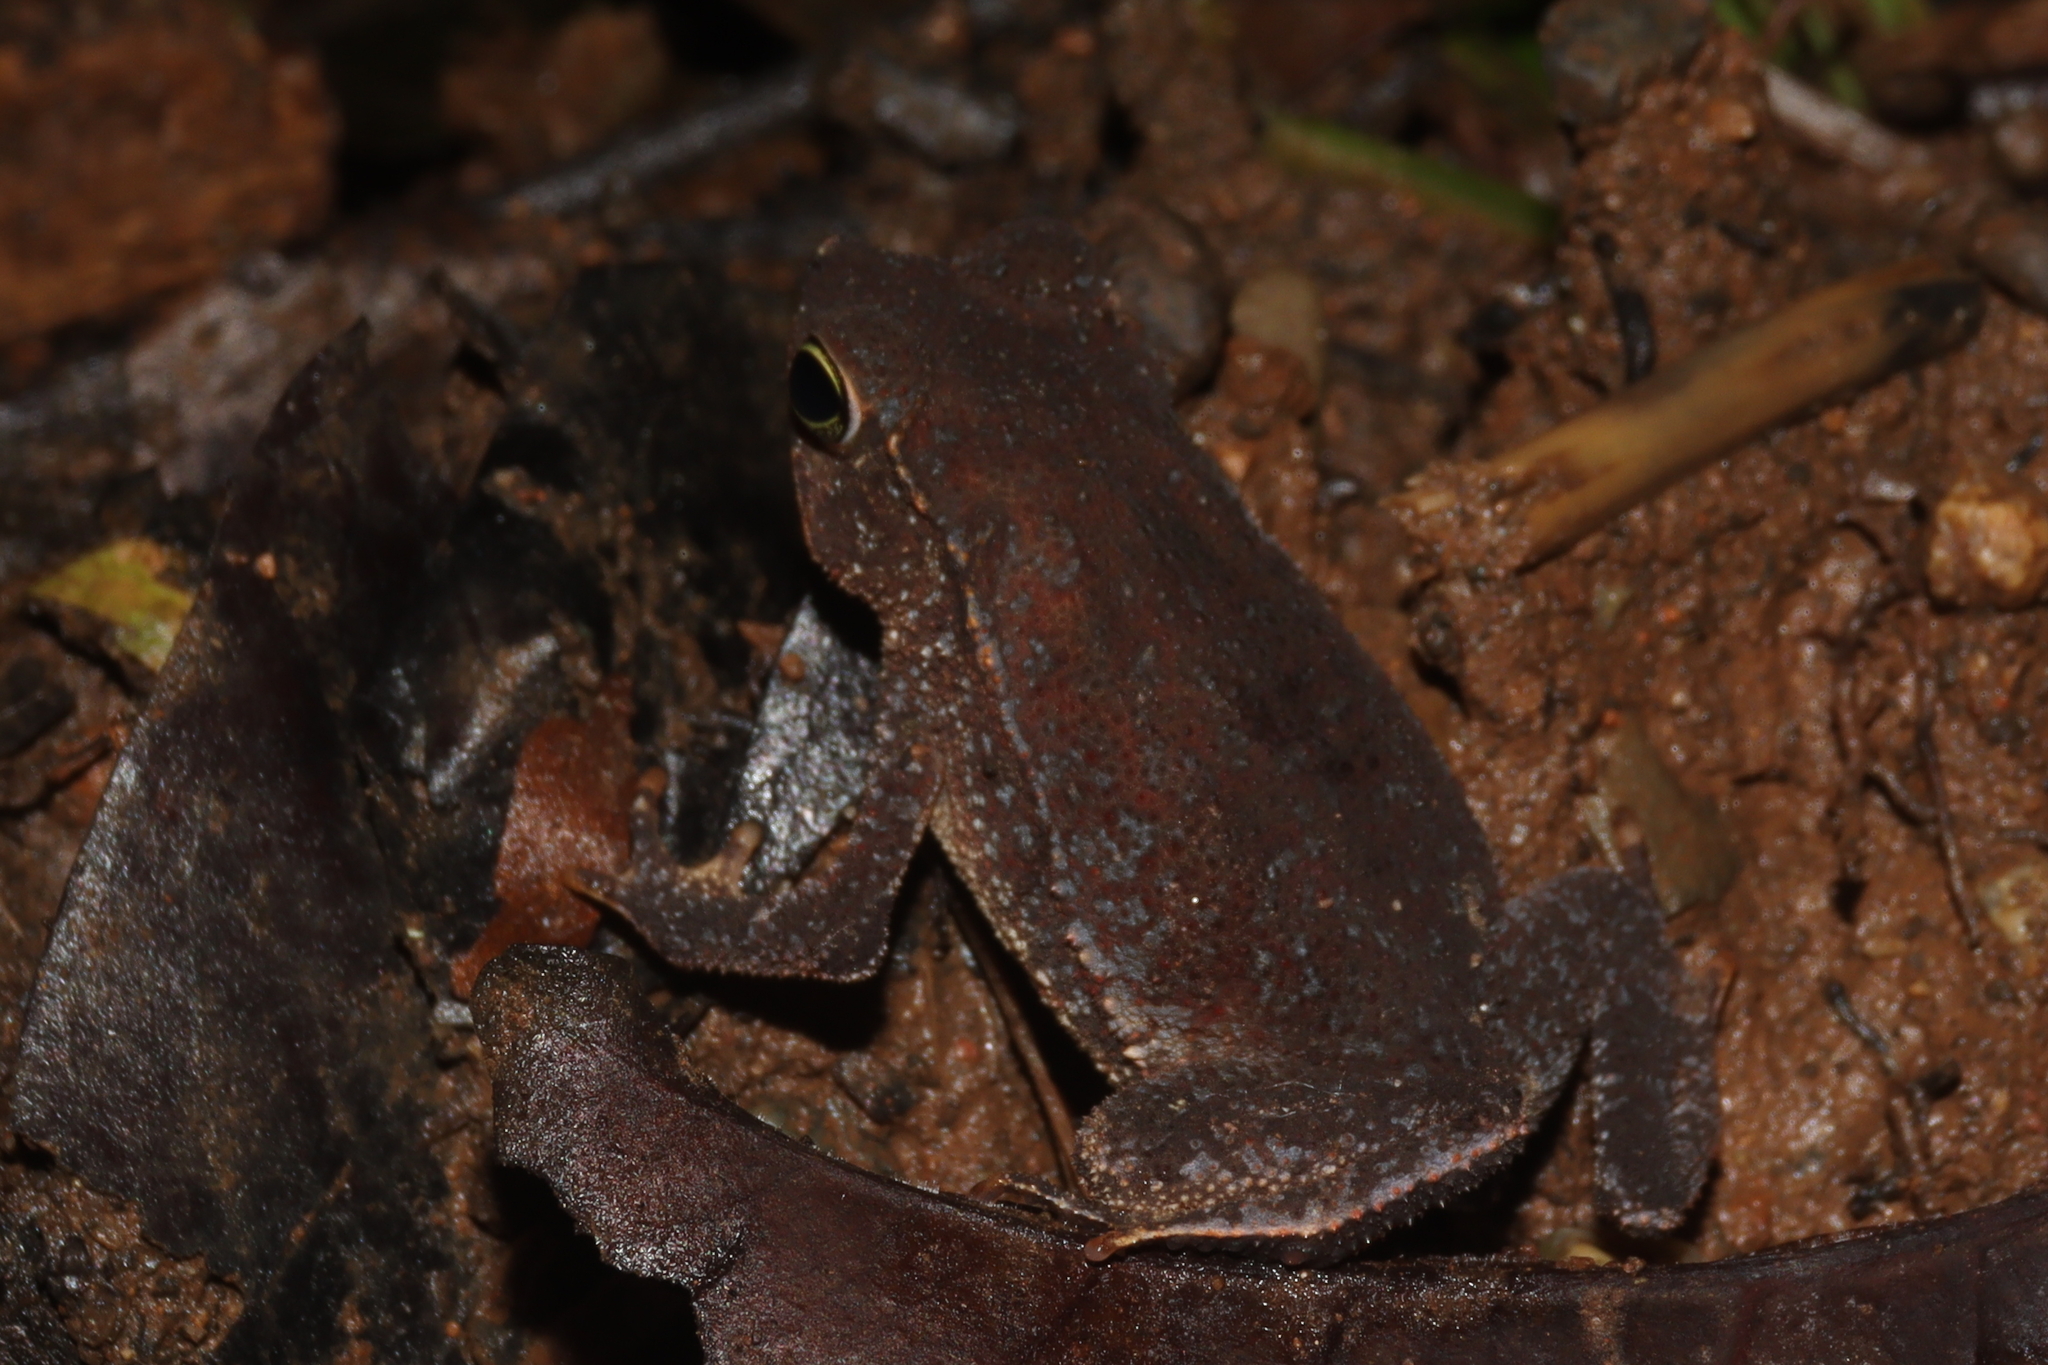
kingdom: Animalia
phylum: Chordata
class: Amphibia
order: Anura
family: Bufonidae
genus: Rhinella
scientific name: Rhinella alata
